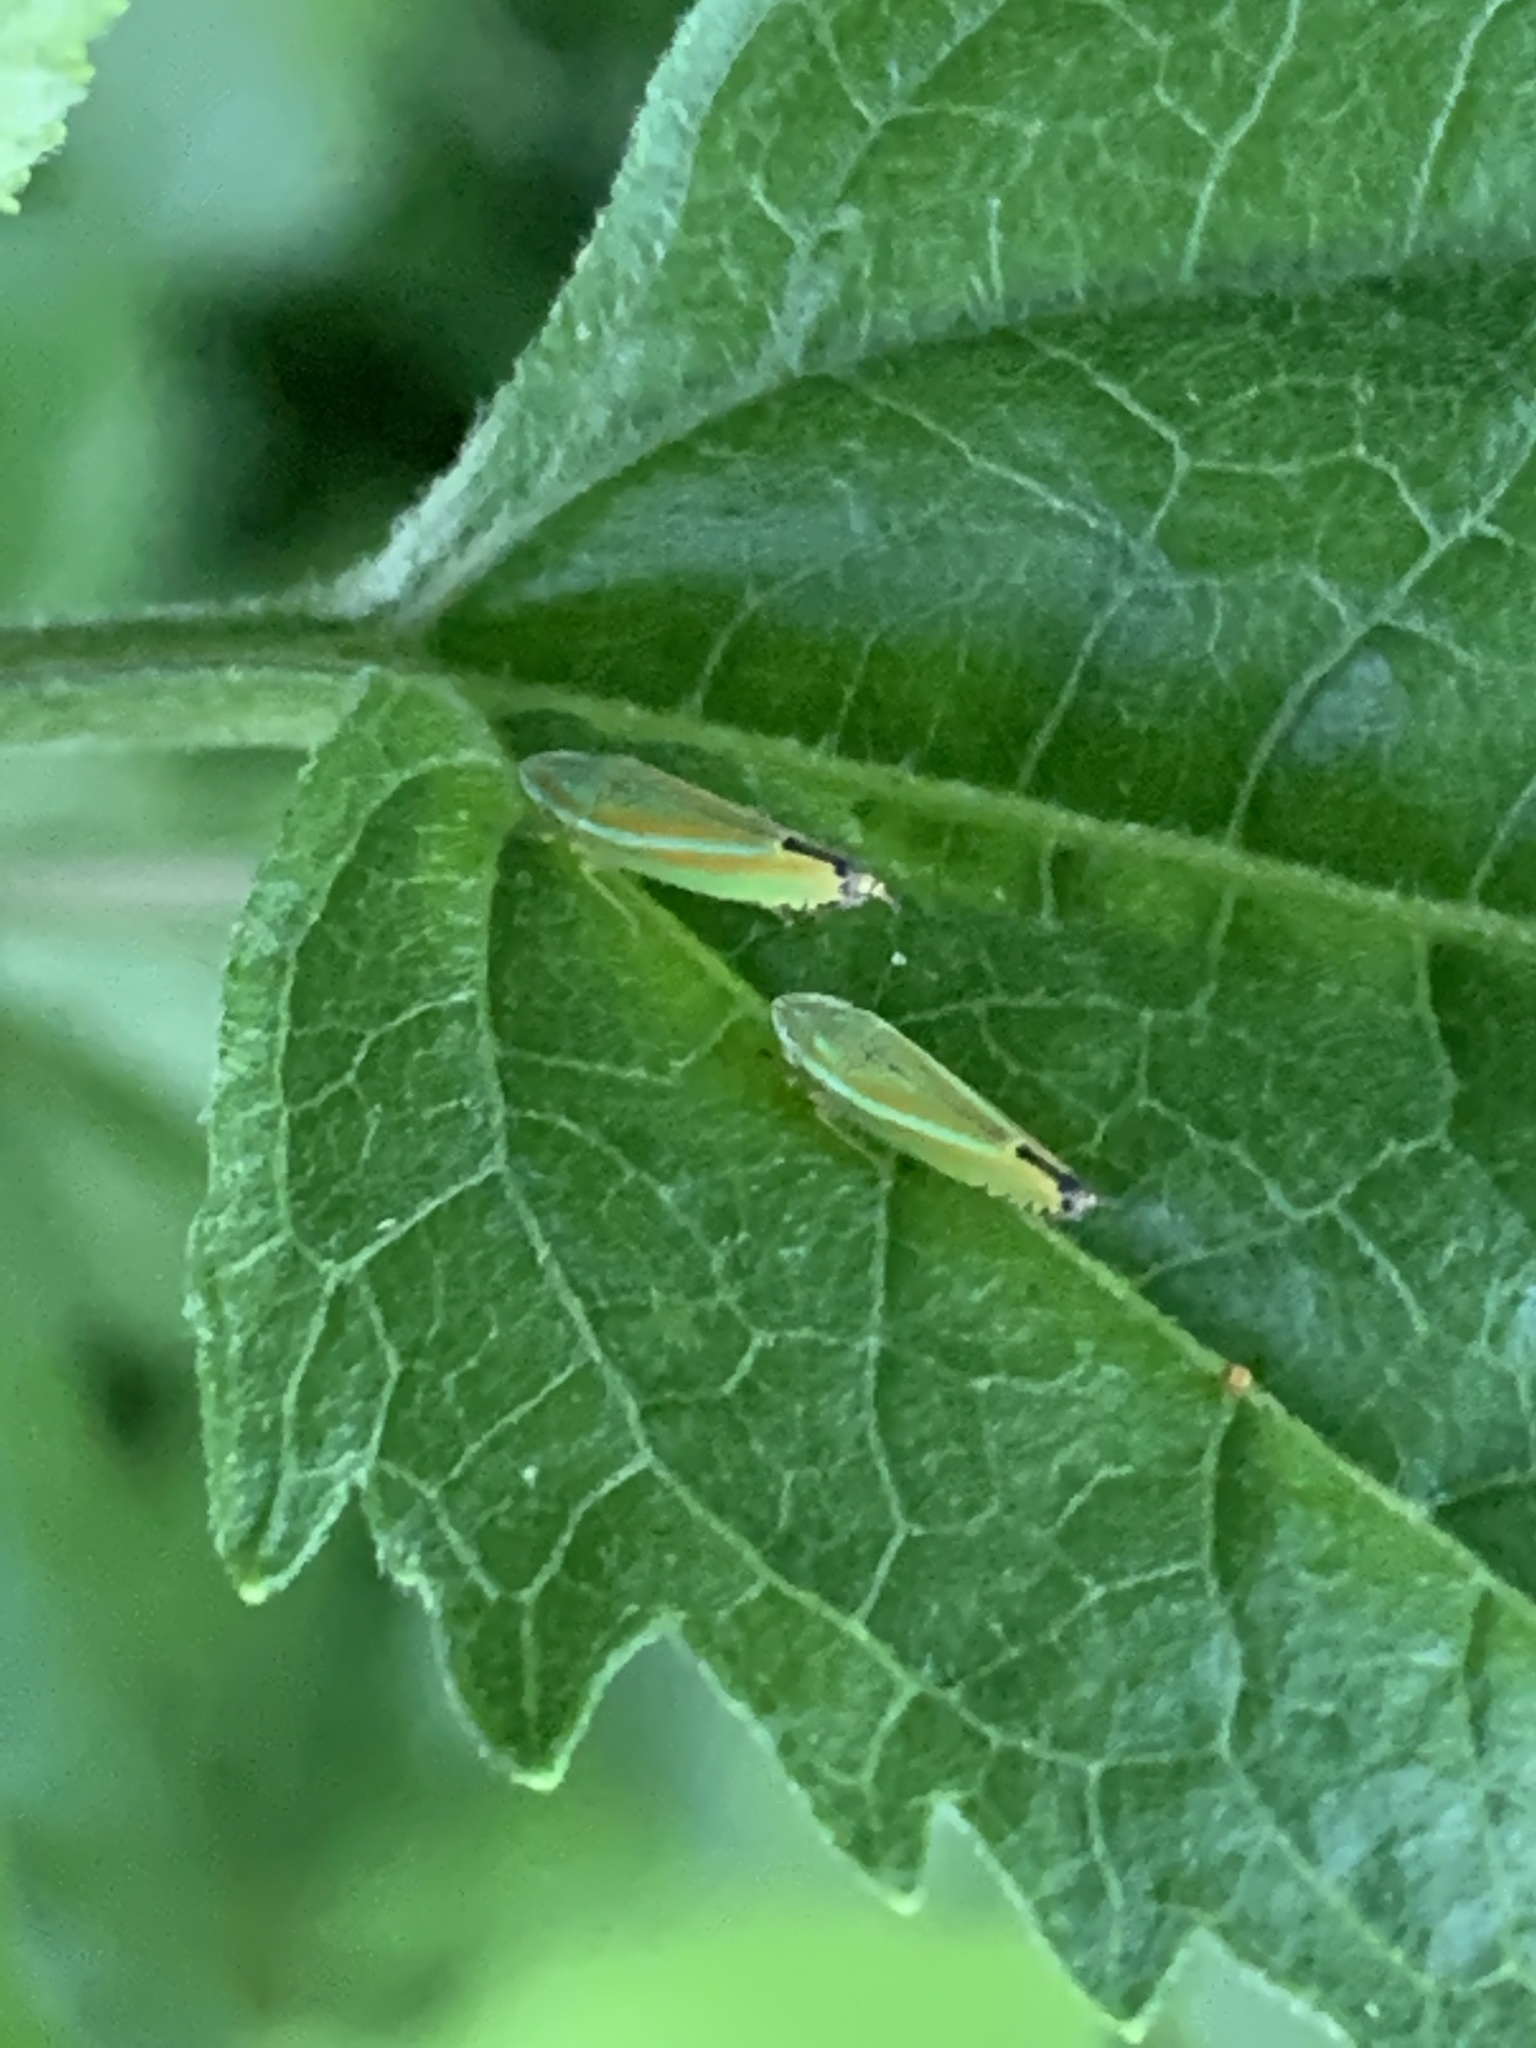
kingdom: Animalia
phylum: Arthropoda
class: Insecta
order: Hemiptera
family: Cicadellidae
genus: Graphocephala
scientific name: Graphocephala versuta
